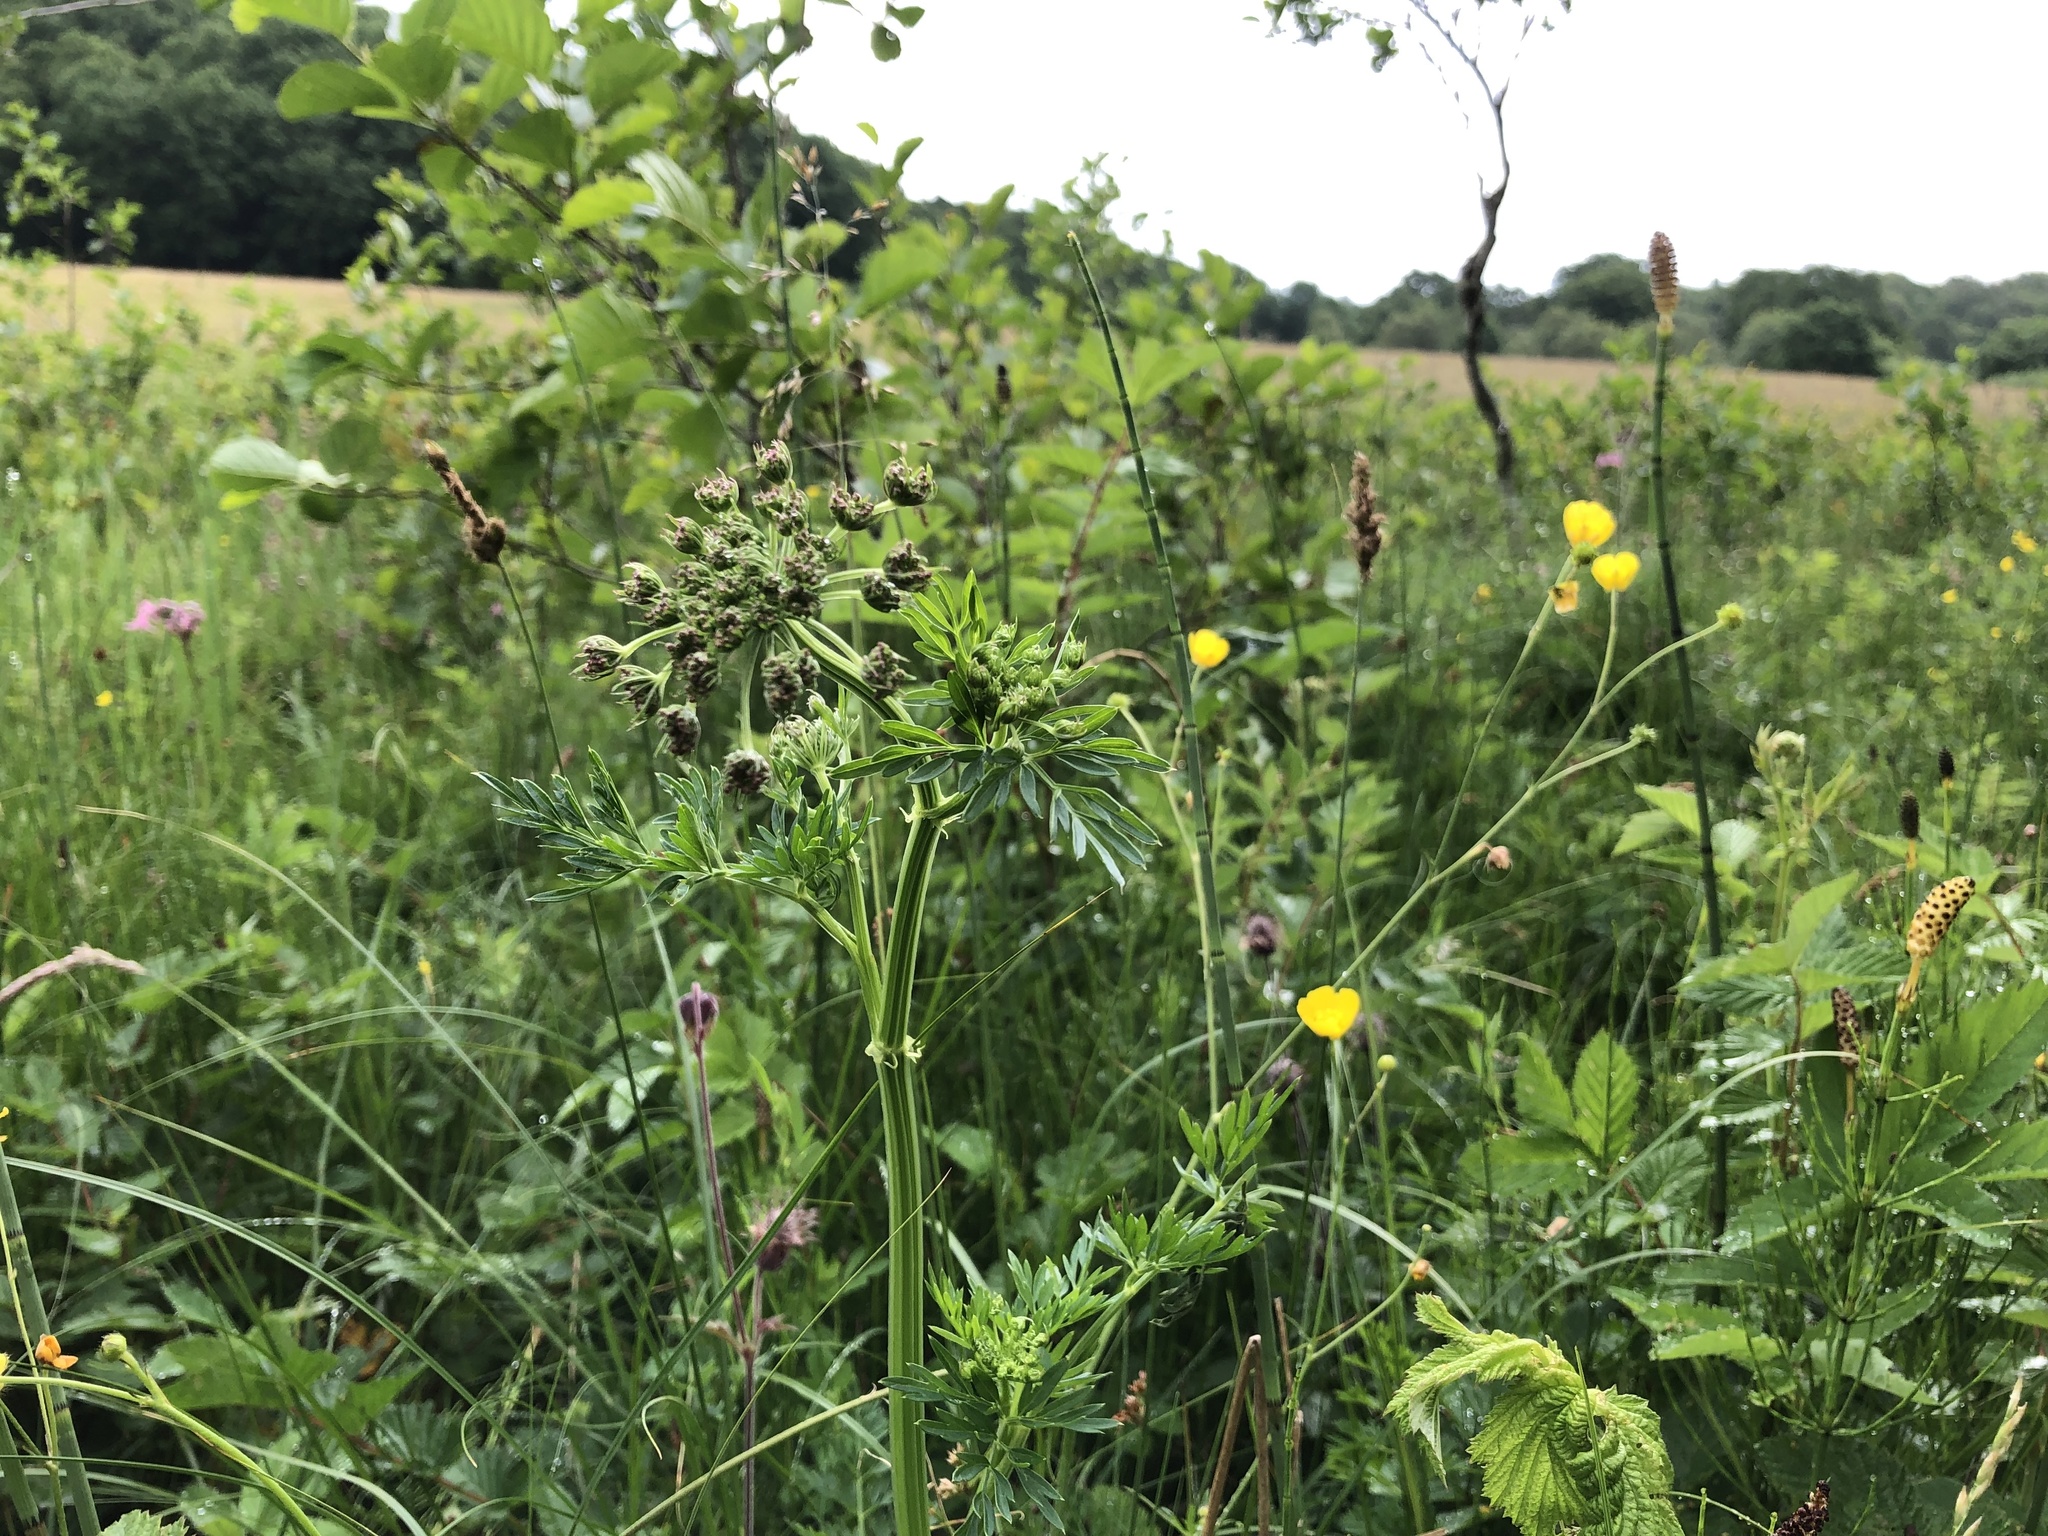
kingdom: Plantae
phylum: Tracheophyta
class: Magnoliopsida
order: Apiales
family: Apiaceae
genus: Selinum
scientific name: Selinum carvifolia
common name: Cambridge milk-parsley
